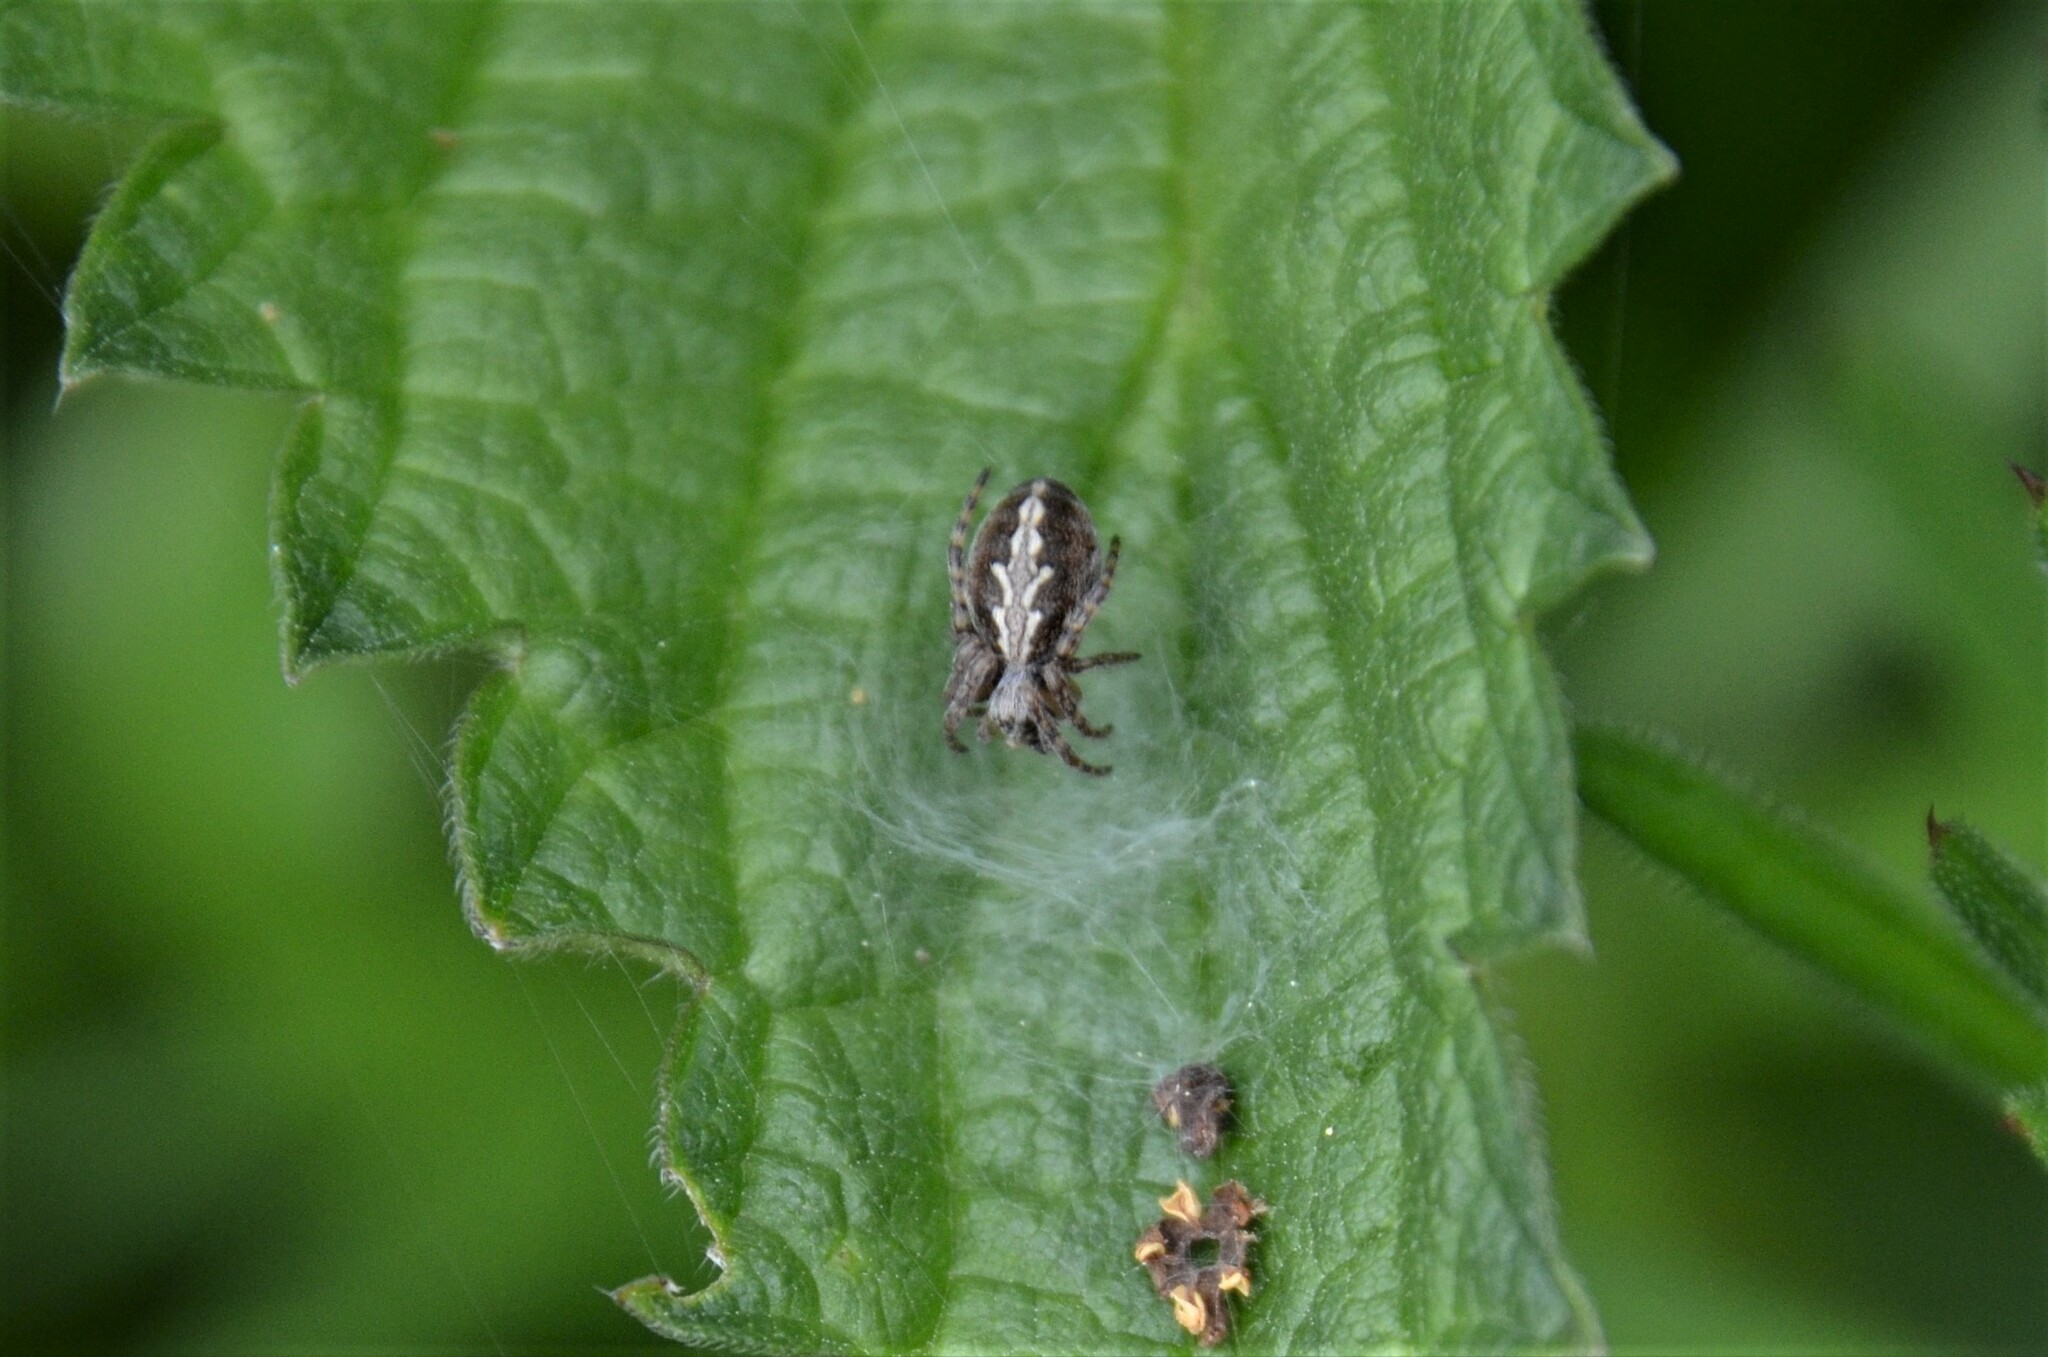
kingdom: Animalia
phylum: Arthropoda
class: Arachnida
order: Araneae
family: Araneidae
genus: Aculepeira
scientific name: Aculepeira ceropegia
